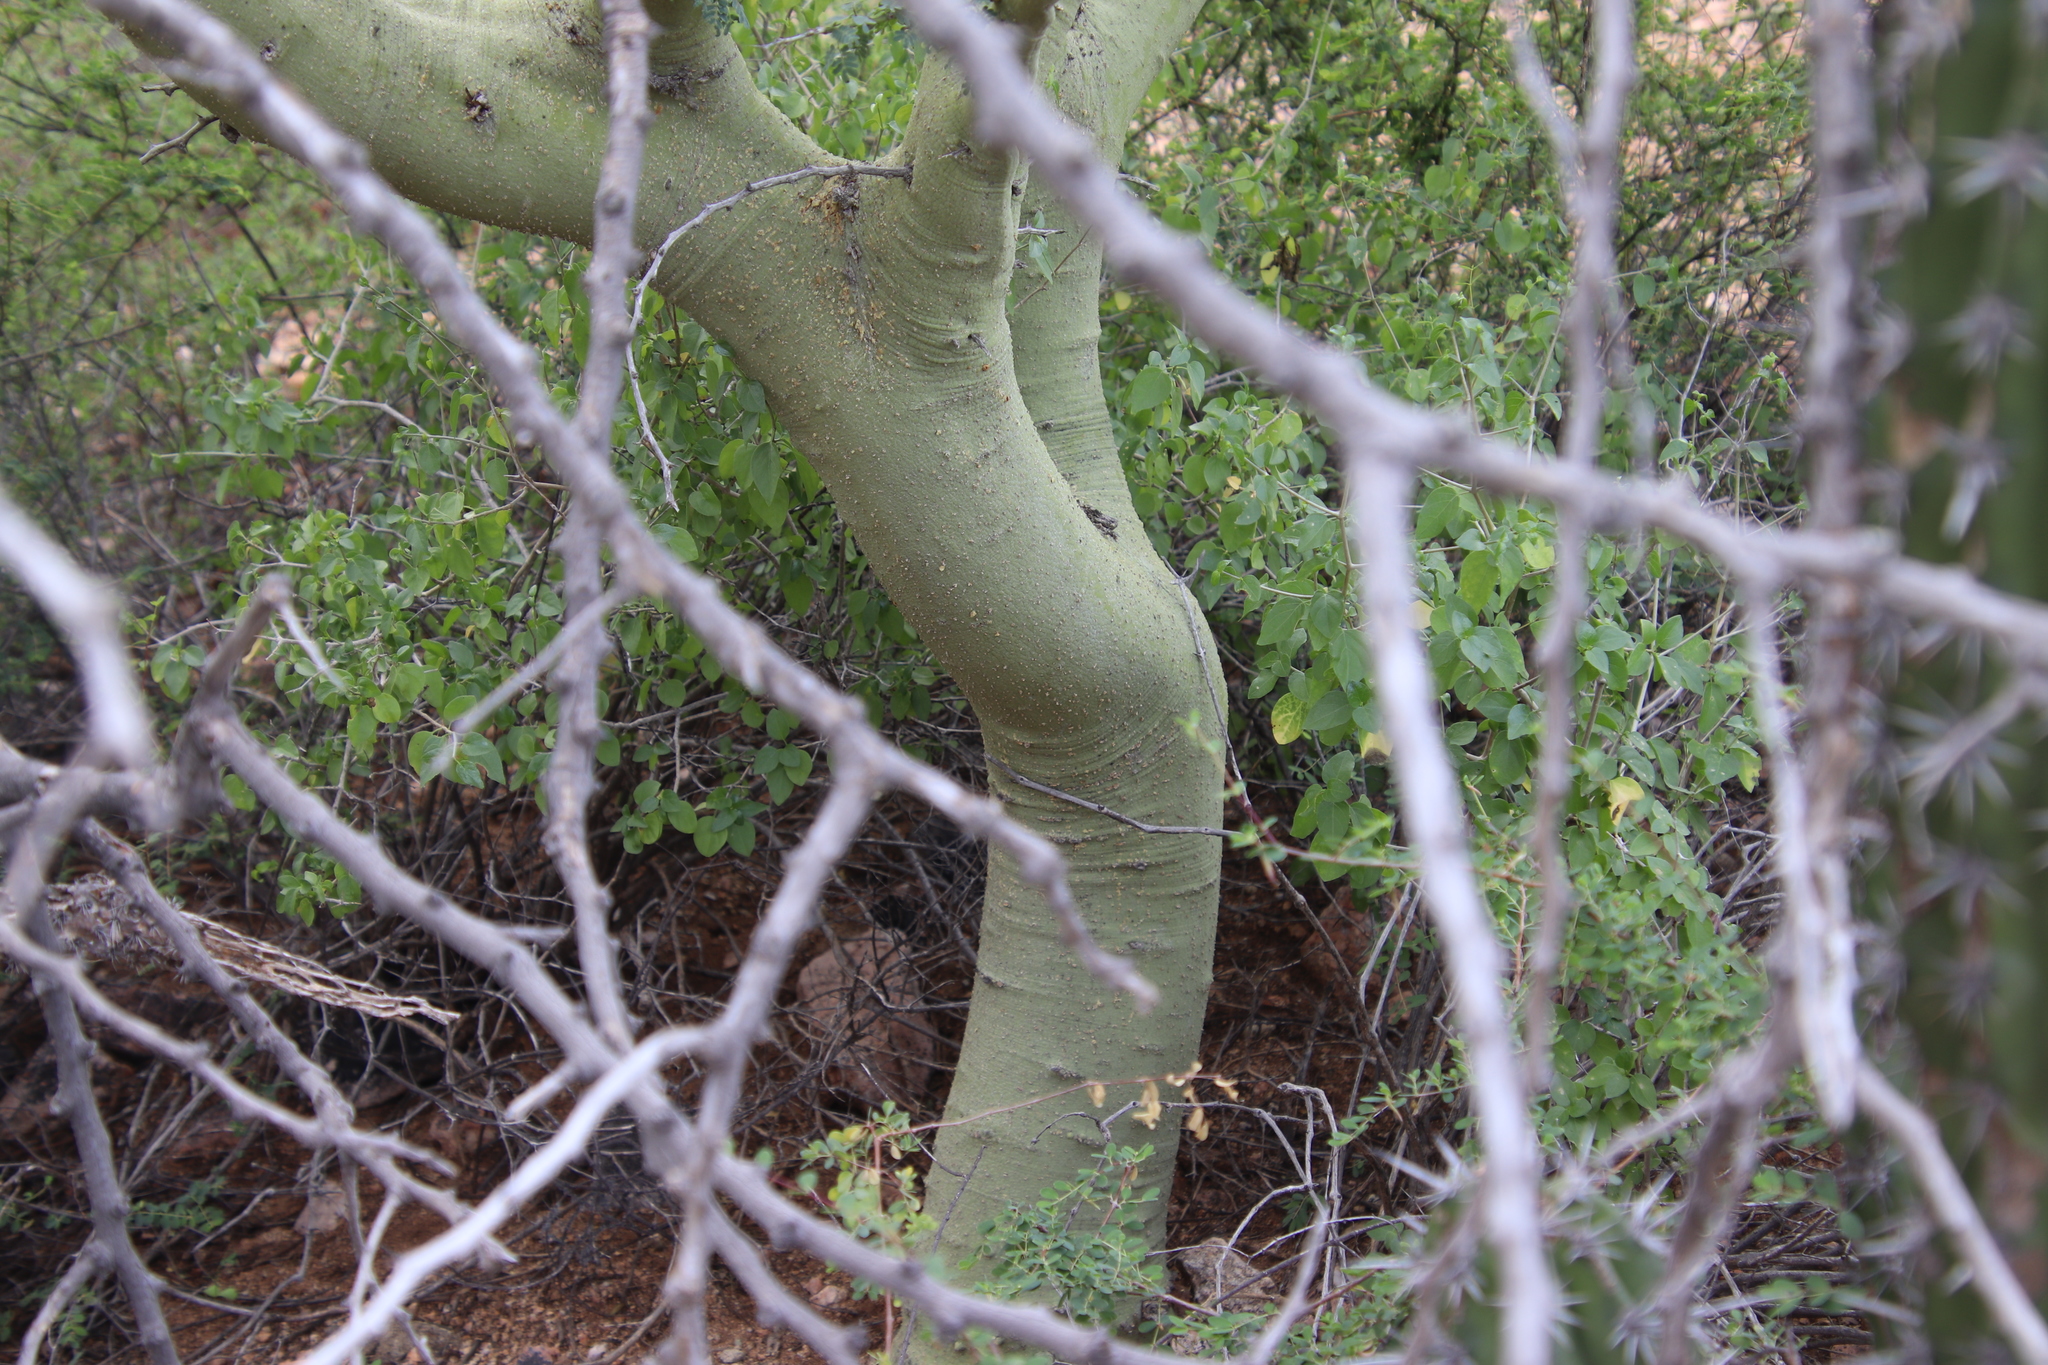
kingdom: Plantae
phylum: Tracheophyta
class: Magnoliopsida
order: Fabales
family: Fabaceae
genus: Parkinsonia
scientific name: Parkinsonia praecox
